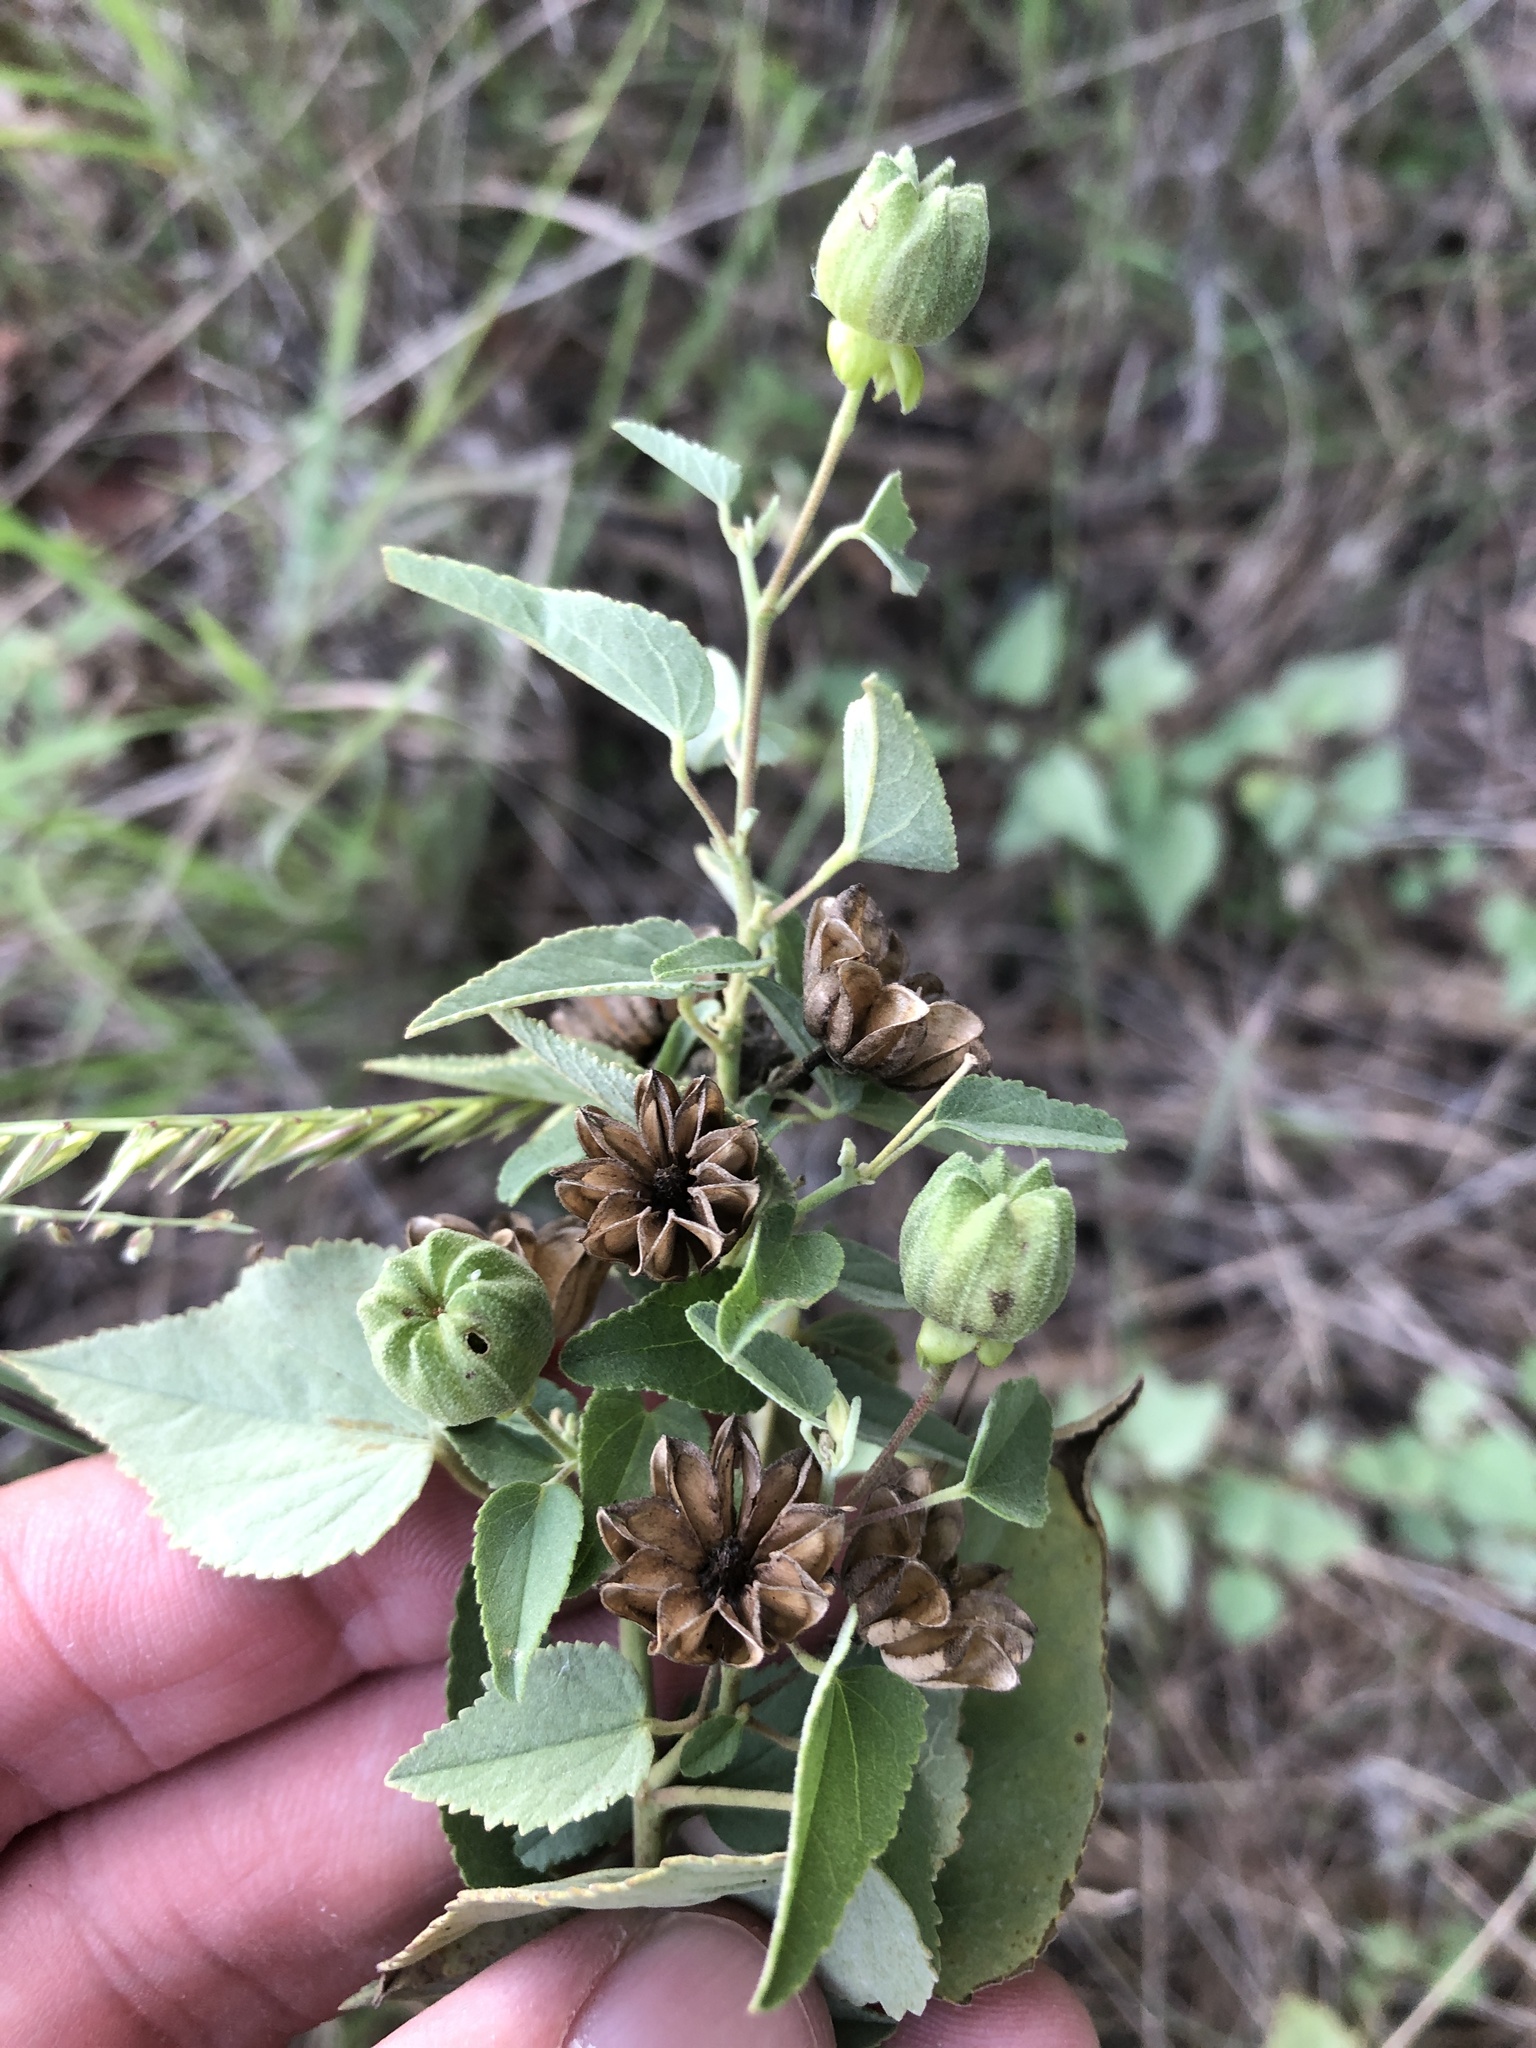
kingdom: Plantae
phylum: Tracheophyta
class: Magnoliopsida
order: Malvales
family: Malvaceae
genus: Abutilon
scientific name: Abutilon fruticosum
